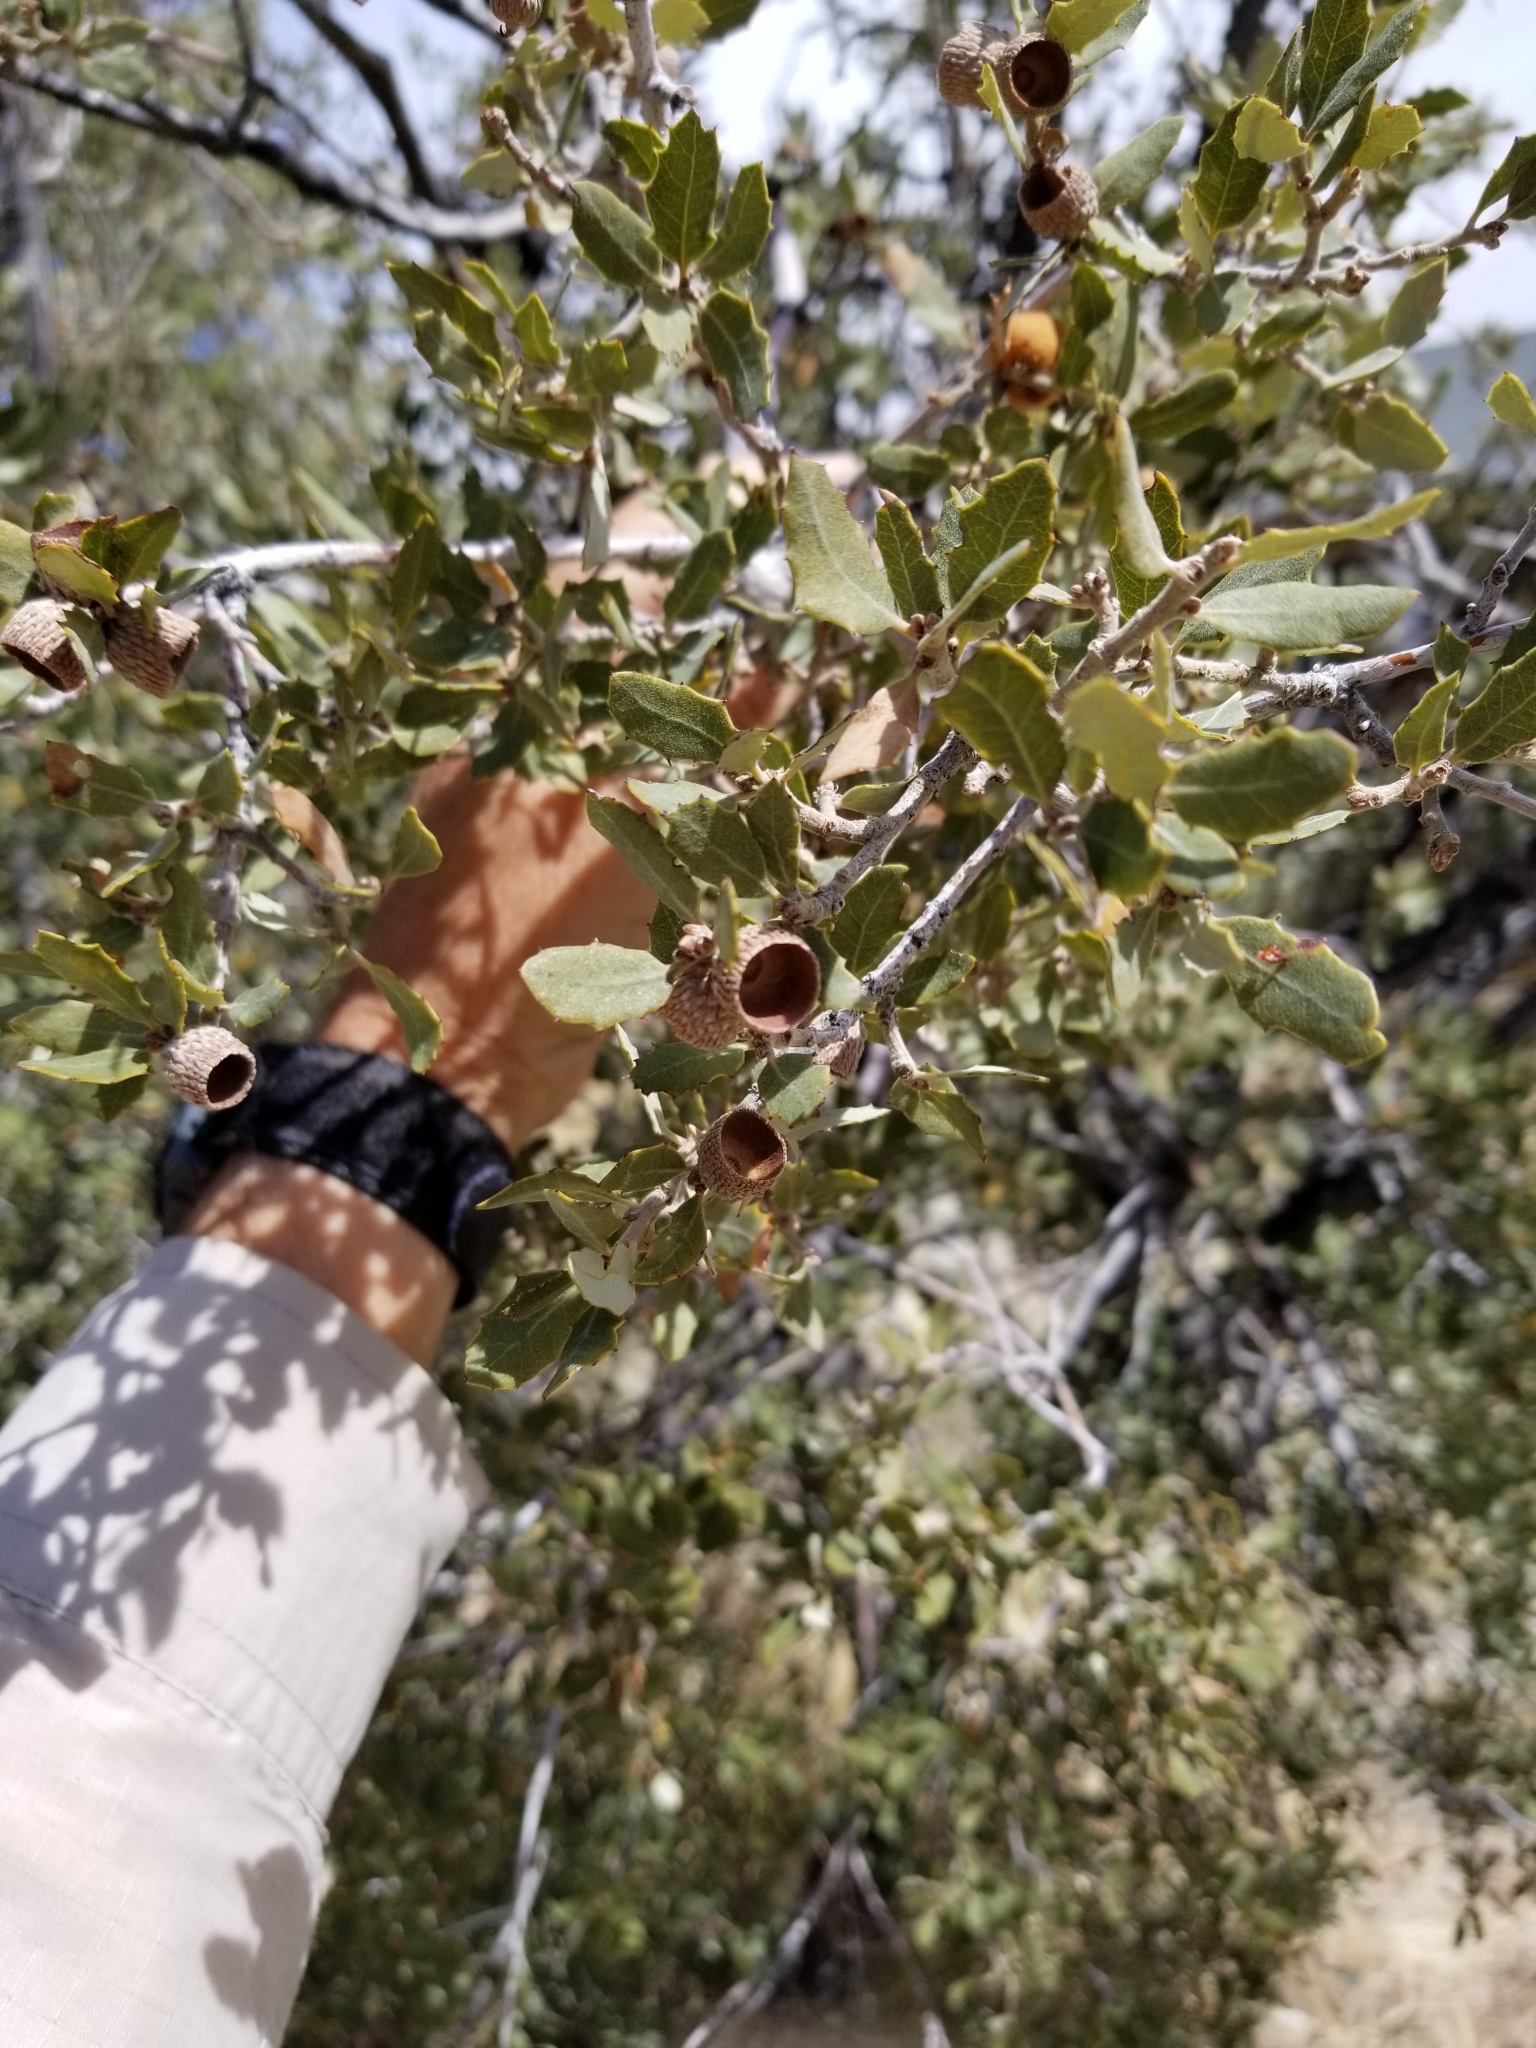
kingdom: Plantae
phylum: Tracheophyta
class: Magnoliopsida
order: Fagales
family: Fagaceae
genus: Quercus
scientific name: Quercus cornelius-mulleri
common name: Muller oak
